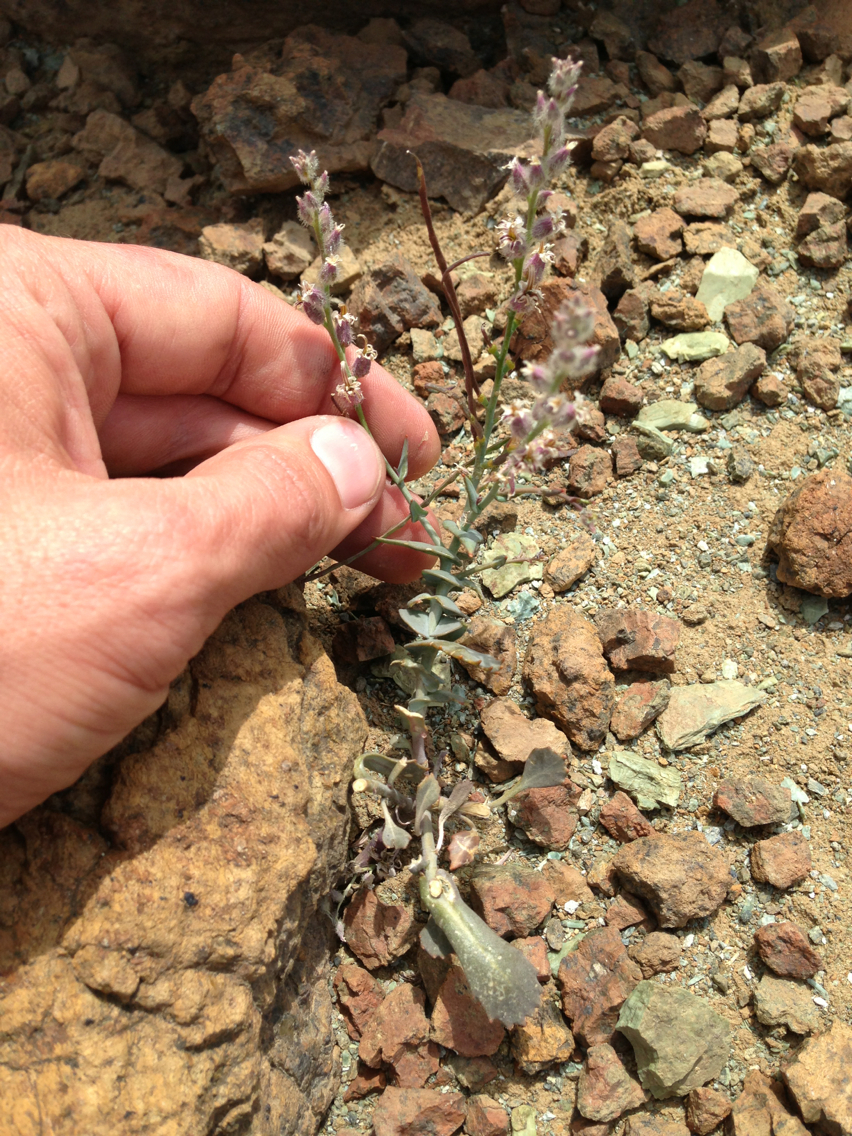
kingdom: Plantae
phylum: Tracheophyta
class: Magnoliopsida
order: Brassicales
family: Brassicaceae
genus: Streptanthus
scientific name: Streptanthus brachiatus
